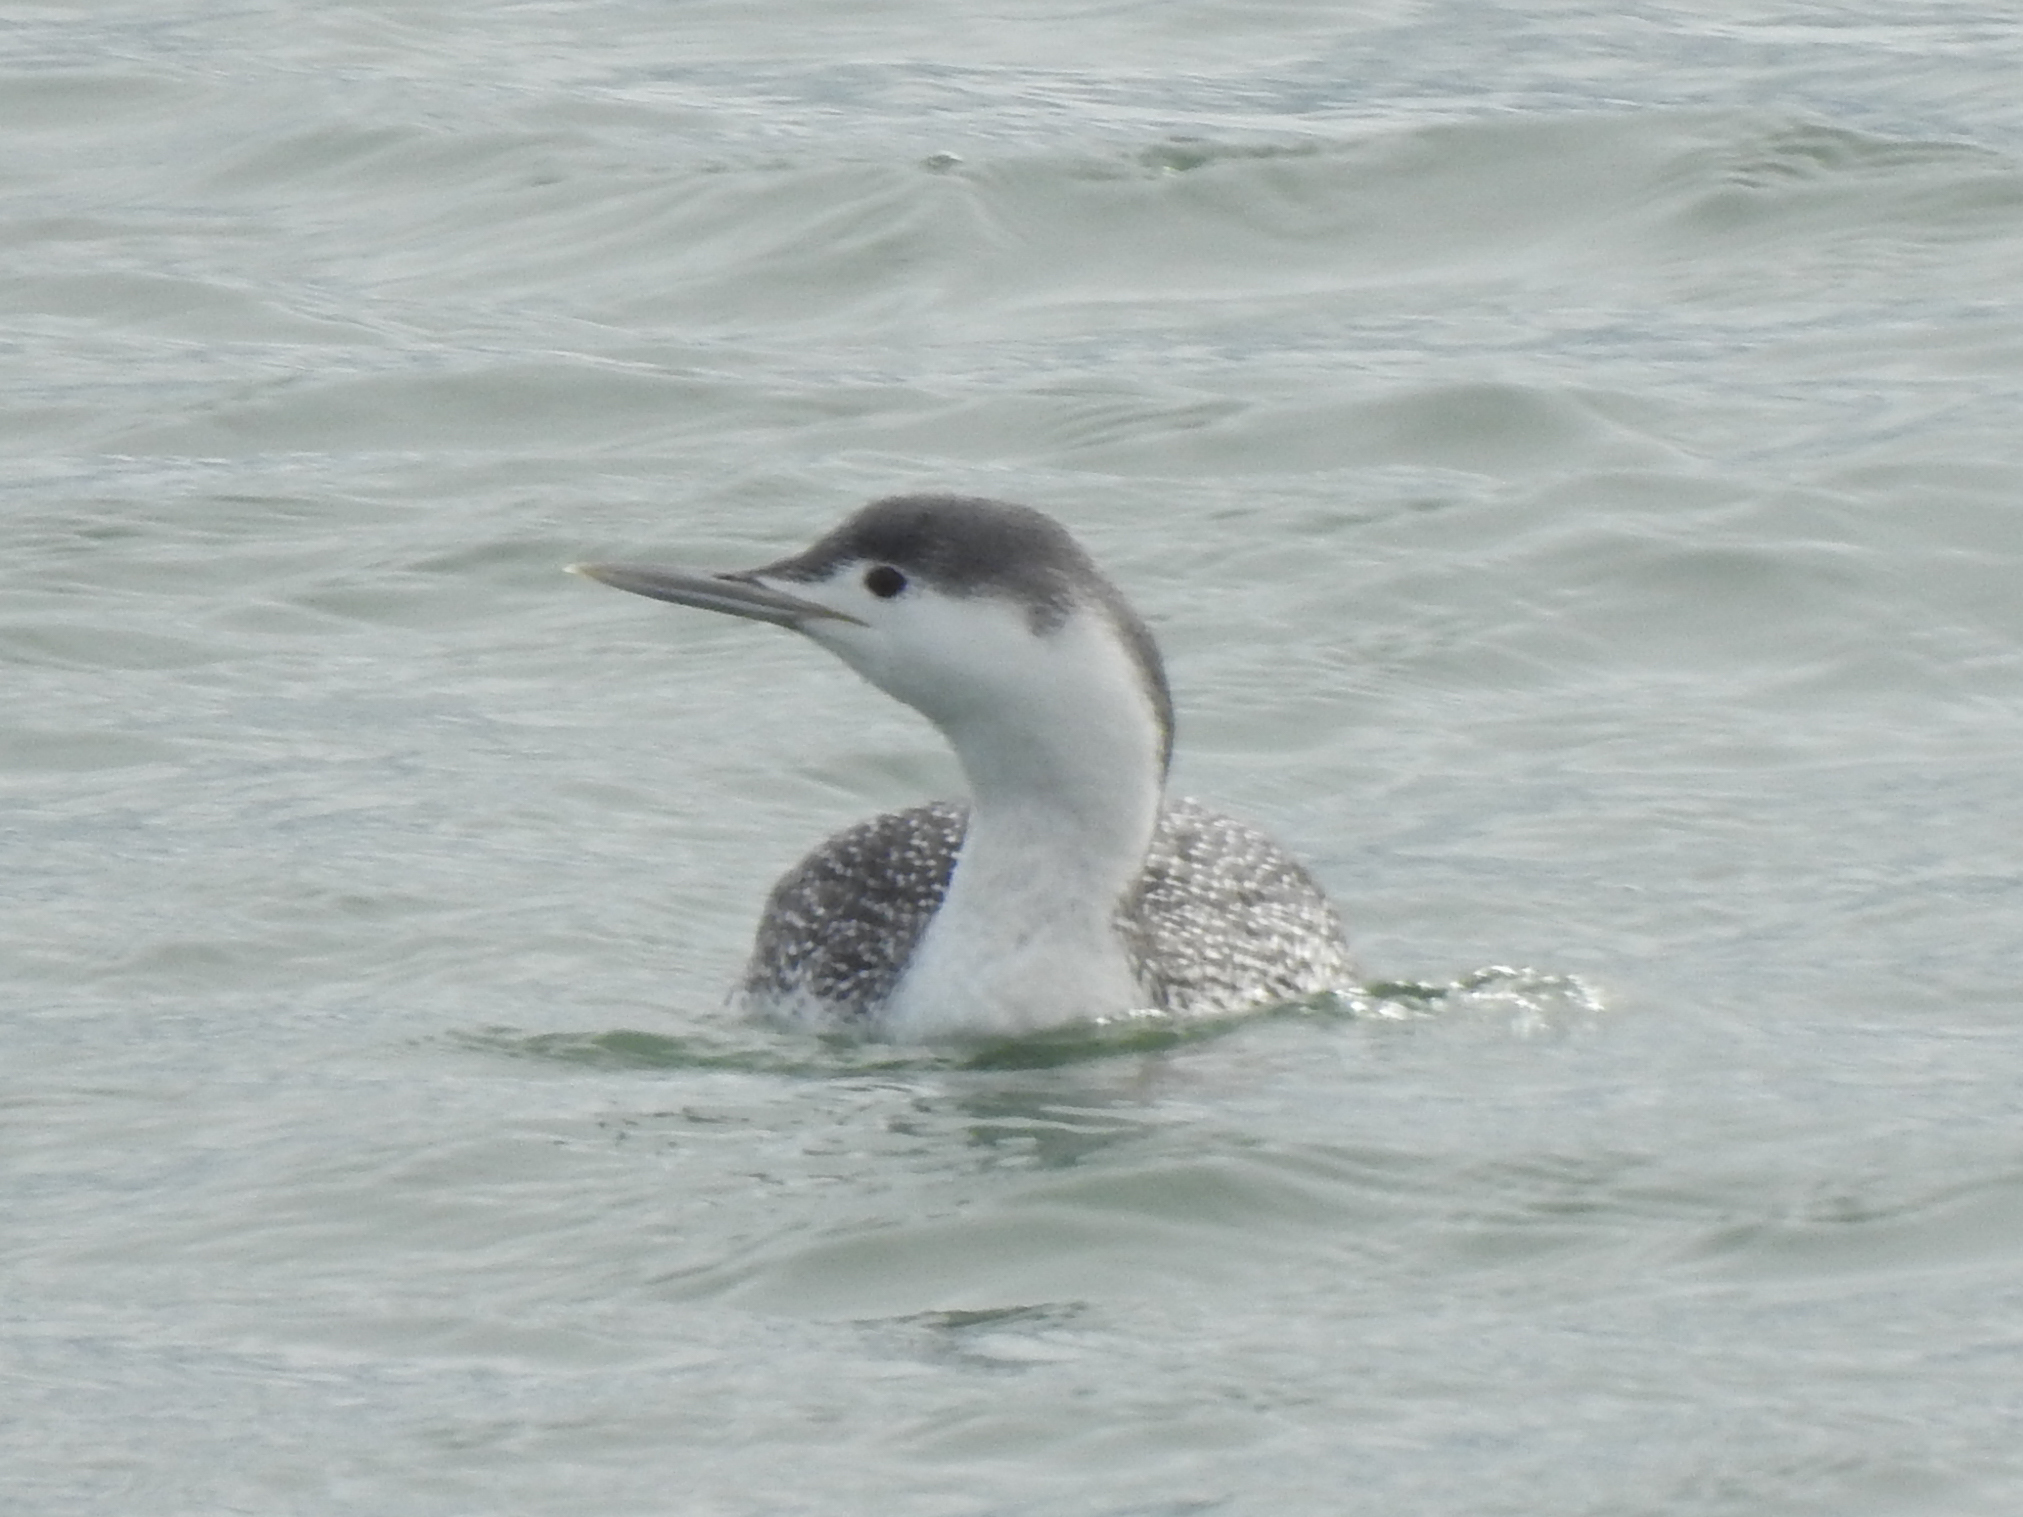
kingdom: Animalia
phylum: Chordata
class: Aves
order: Gaviiformes
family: Gaviidae
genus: Gavia
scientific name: Gavia stellata
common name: Red-throated loon
